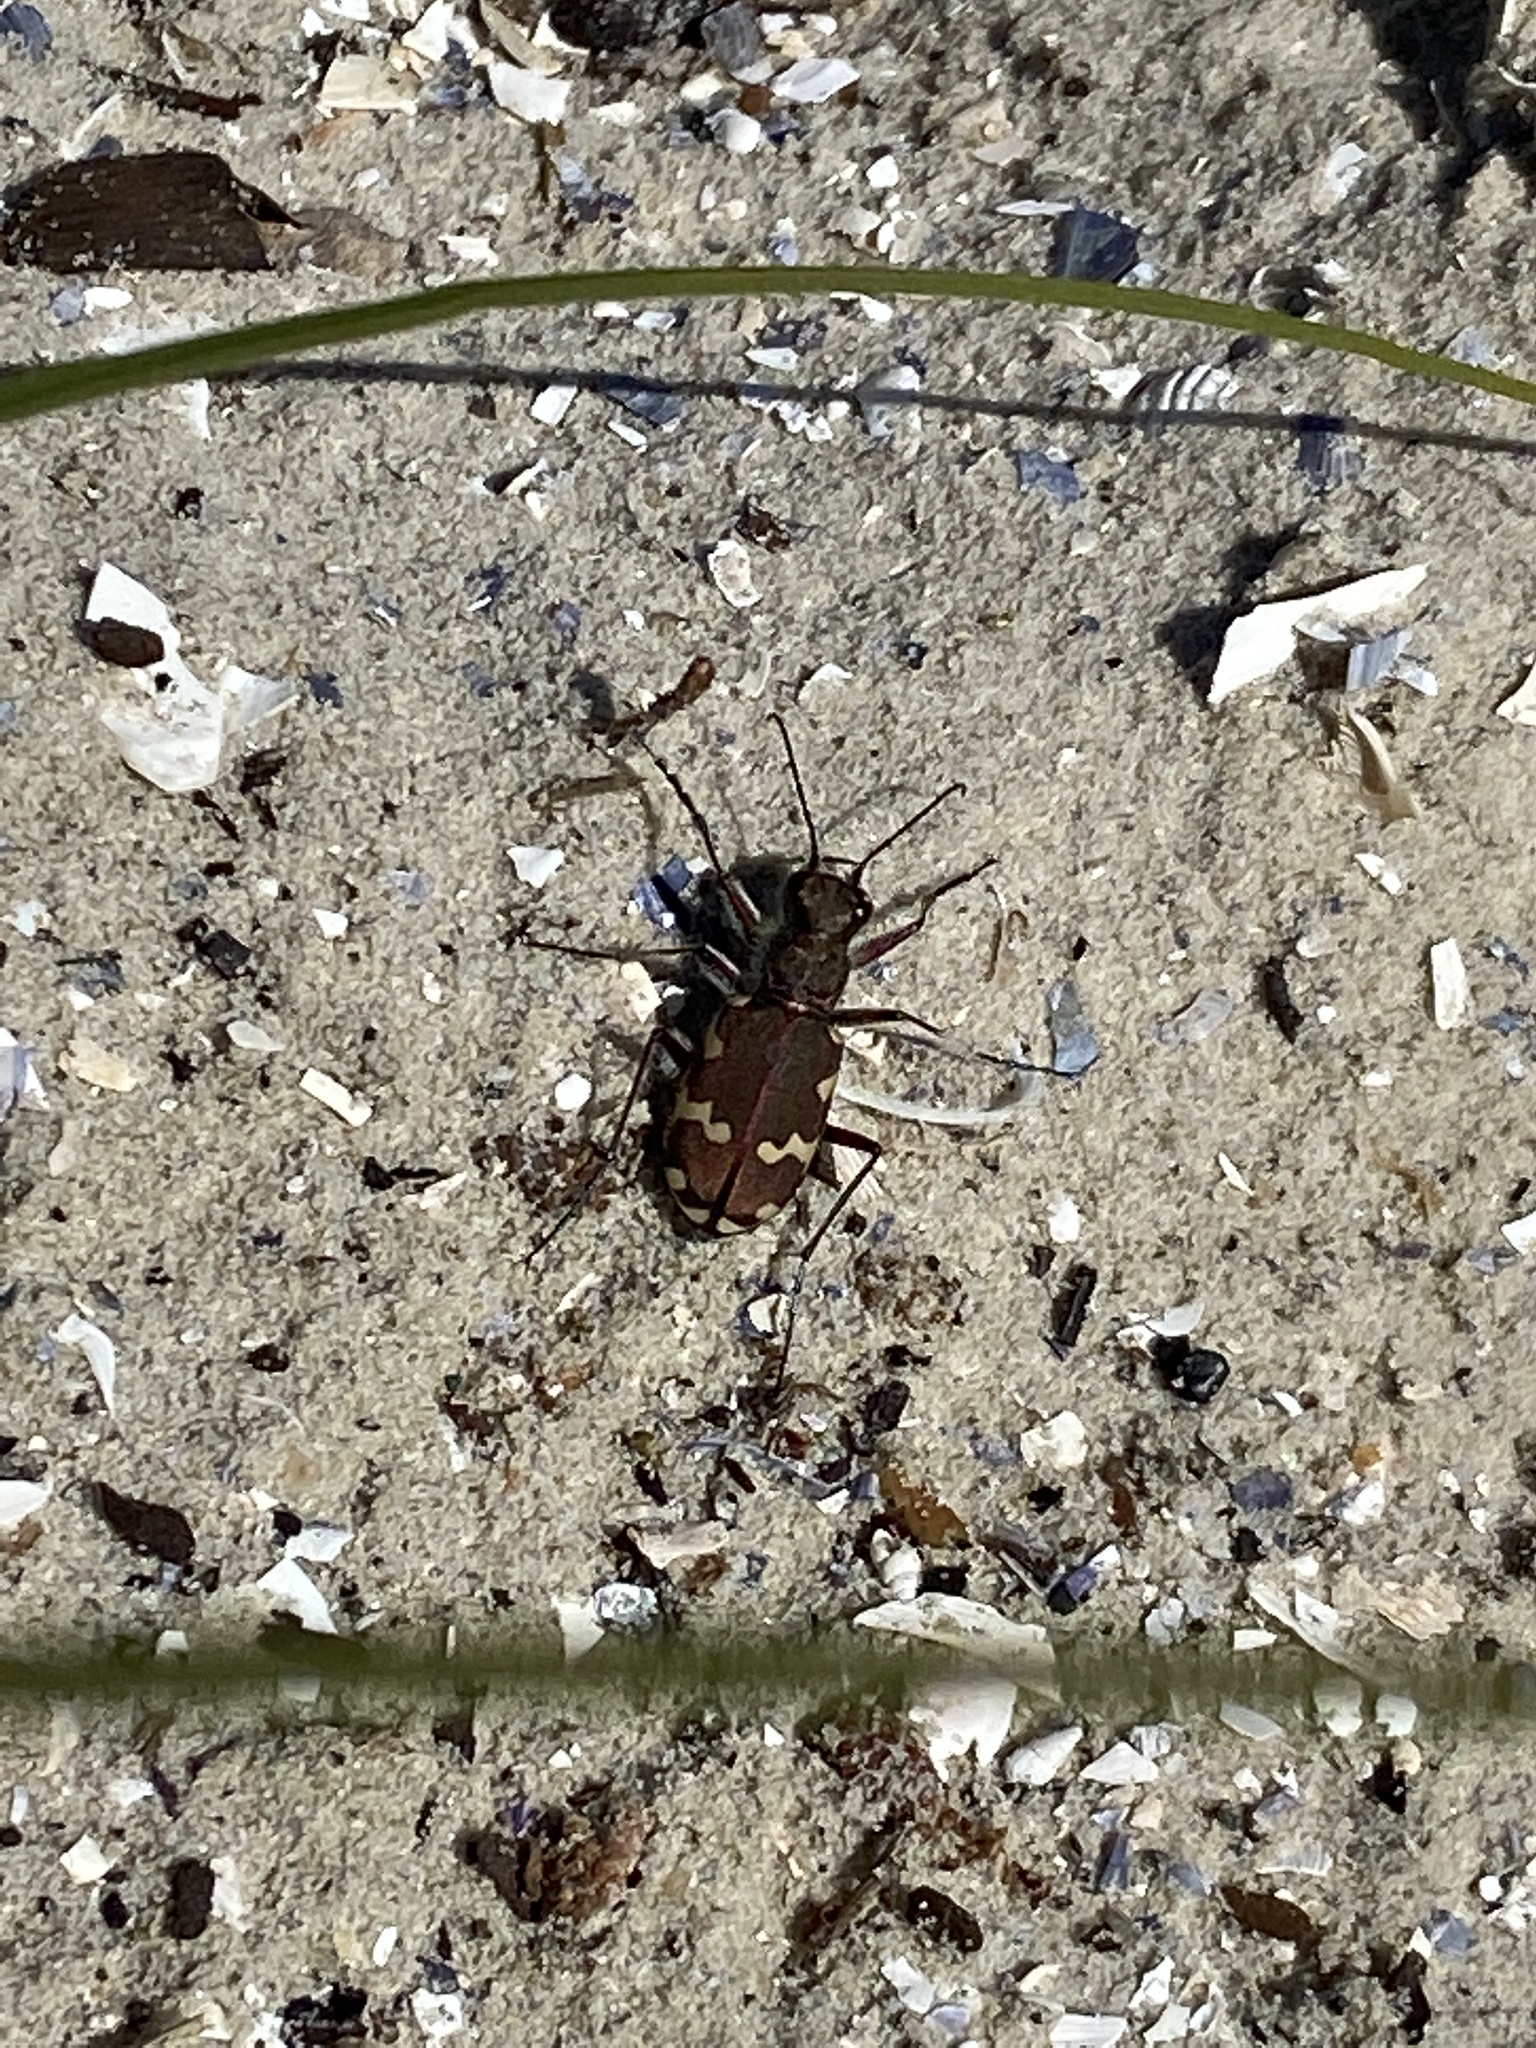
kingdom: Animalia
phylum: Arthropoda
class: Insecta
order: Coleoptera
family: Carabidae
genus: Cicindela
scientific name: Cicindela hybrida
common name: Northern dune tiger beetle
